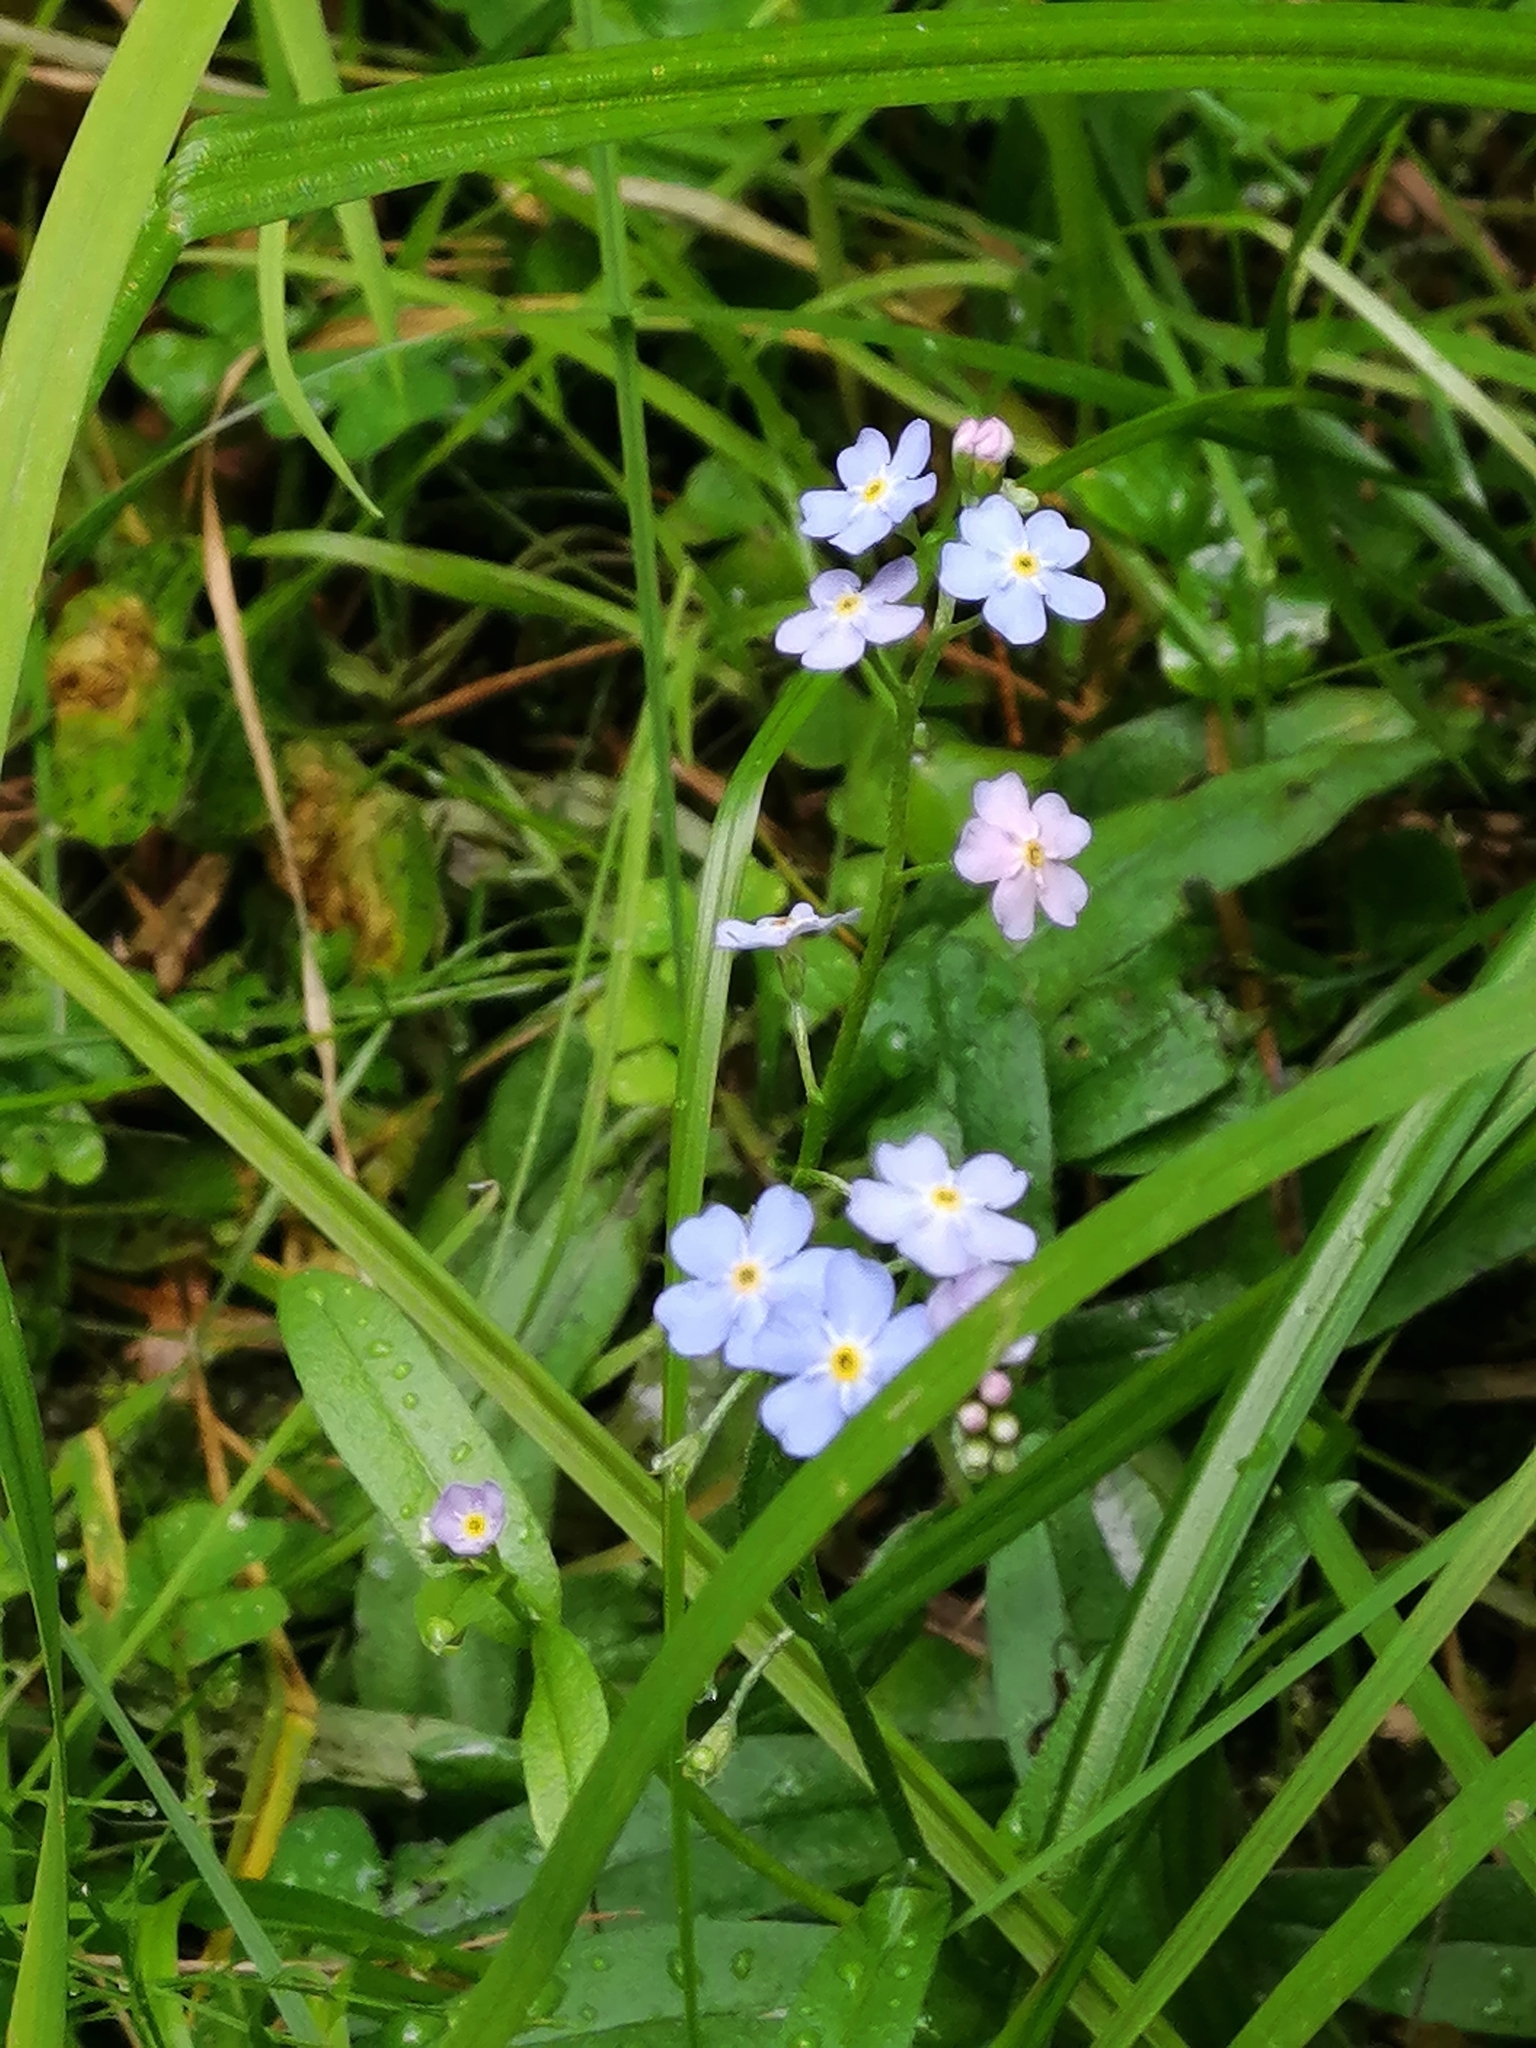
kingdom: Plantae
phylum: Tracheophyta
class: Magnoliopsida
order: Boraginales
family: Boraginaceae
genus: Myosotis
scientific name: Myosotis scorpioides
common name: Water forget-me-not
